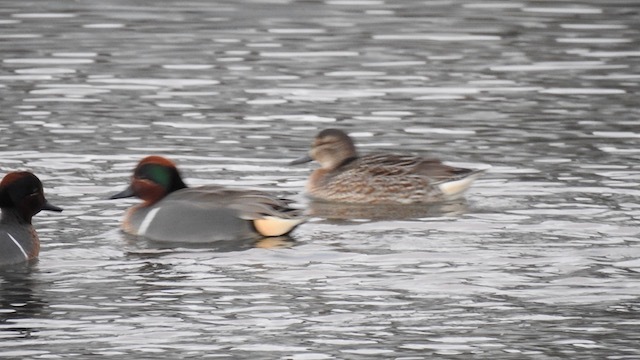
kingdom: Animalia
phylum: Chordata
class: Aves
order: Anseriformes
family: Anatidae
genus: Anas
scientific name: Anas carolinensis
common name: Green-winged teal
